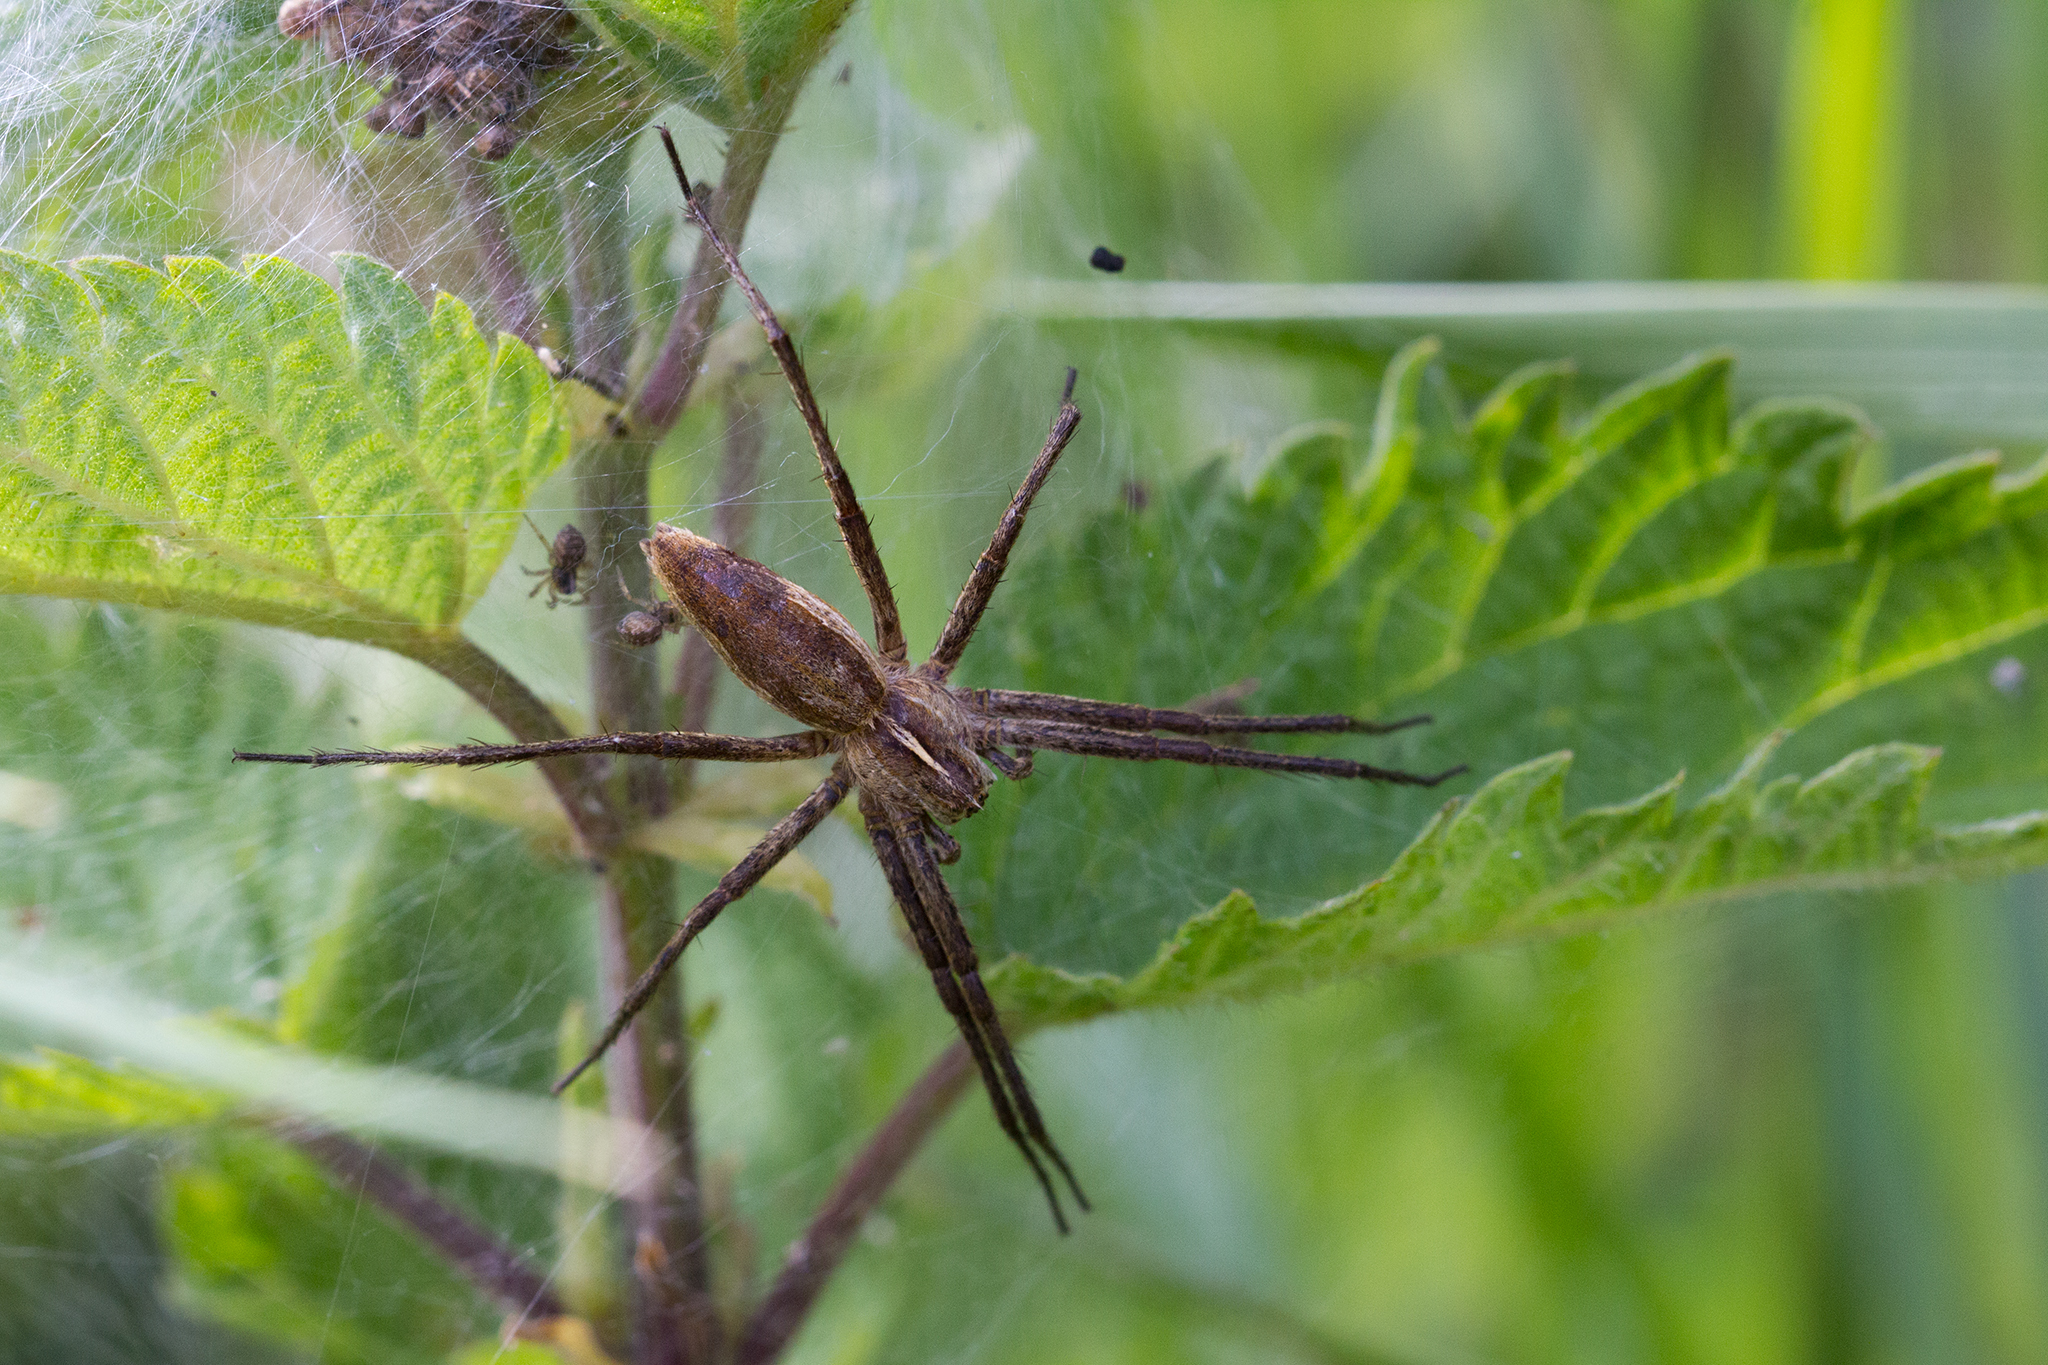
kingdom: Animalia
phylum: Arthropoda
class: Arachnida
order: Araneae
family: Pisauridae
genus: Pisaura
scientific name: Pisaura mirabilis
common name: Tent spider
